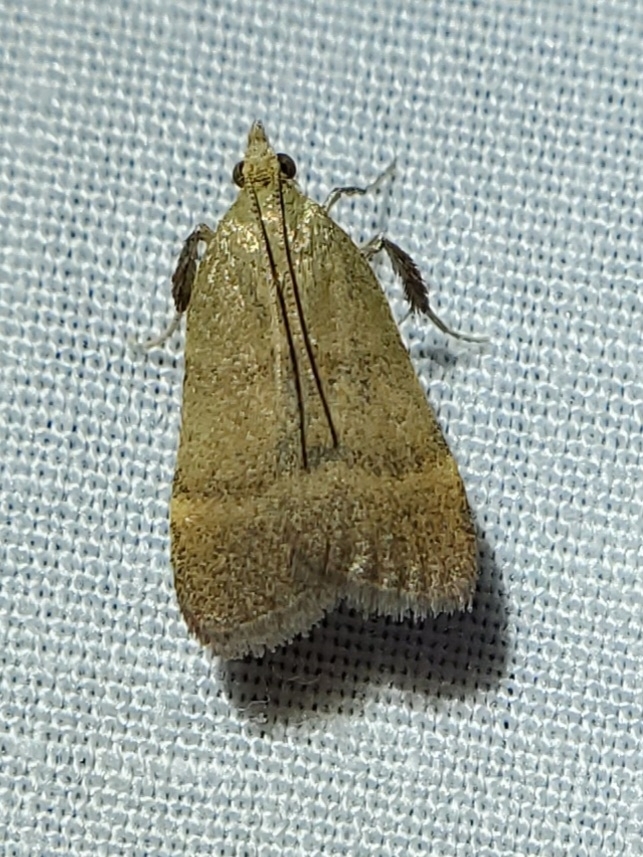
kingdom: Animalia
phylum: Arthropoda
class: Insecta
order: Lepidoptera
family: Pyralidae
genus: Condylolomia
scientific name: Condylolomia participialis
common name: Drab condylolomia moth
